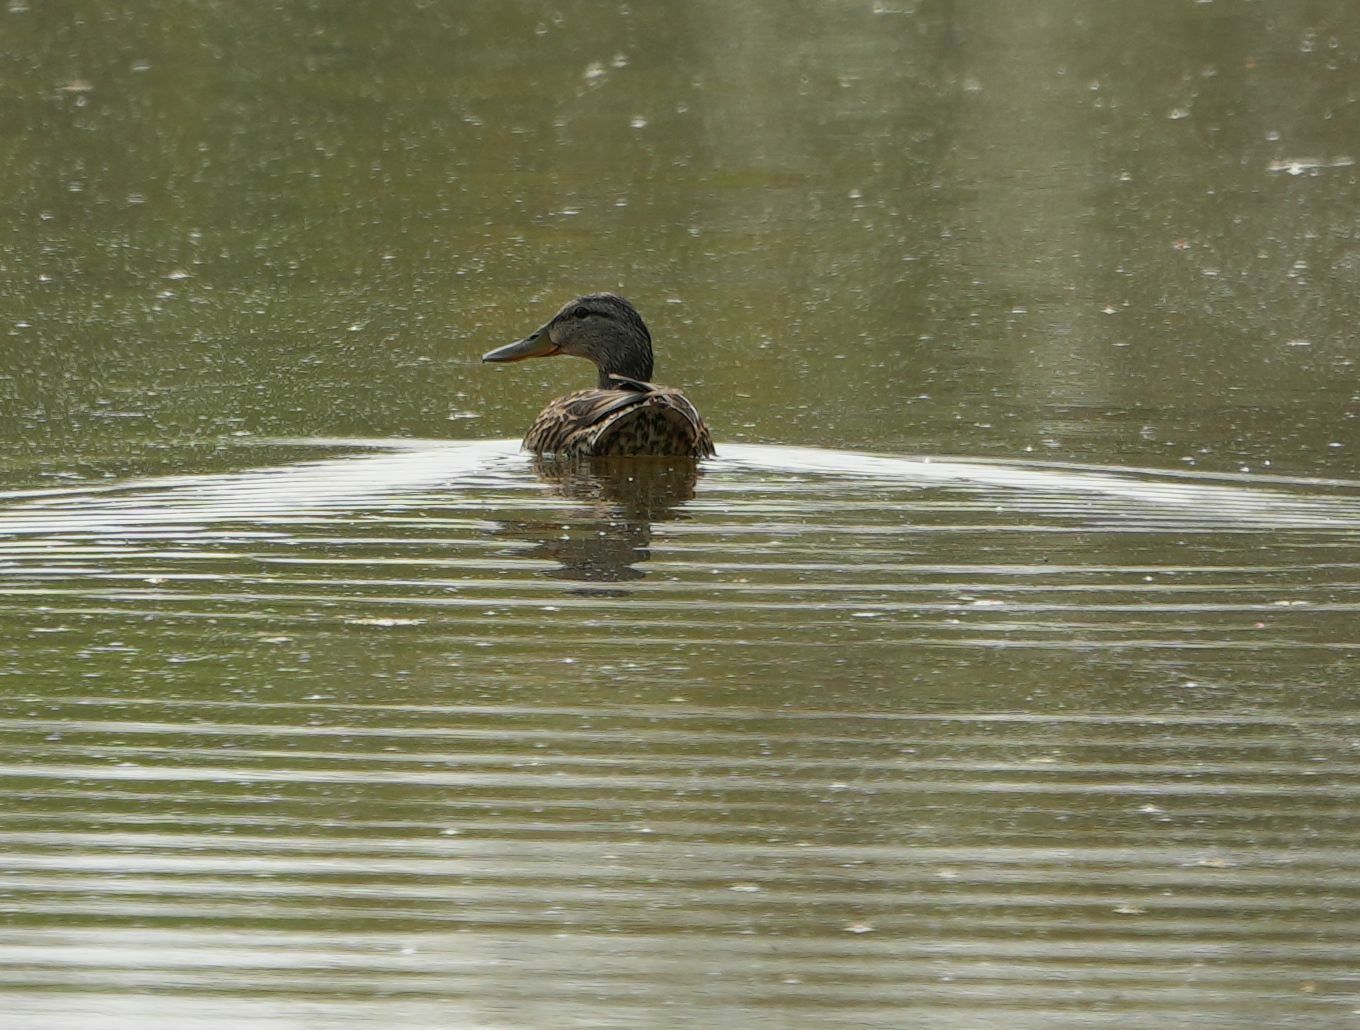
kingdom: Animalia
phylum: Chordata
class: Aves
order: Anseriformes
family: Anatidae
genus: Anas
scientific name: Anas platyrhynchos
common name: Mallard
